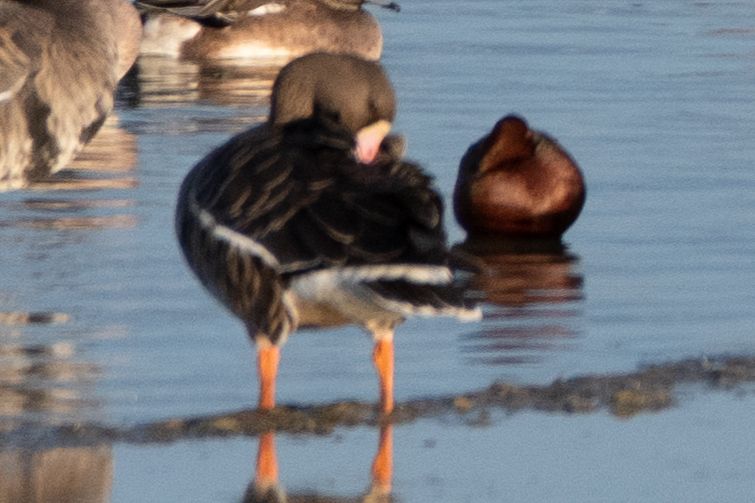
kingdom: Animalia
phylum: Chordata
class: Aves
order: Anseriformes
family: Anatidae
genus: Anser
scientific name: Anser albifrons
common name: Greater white-fronted goose
